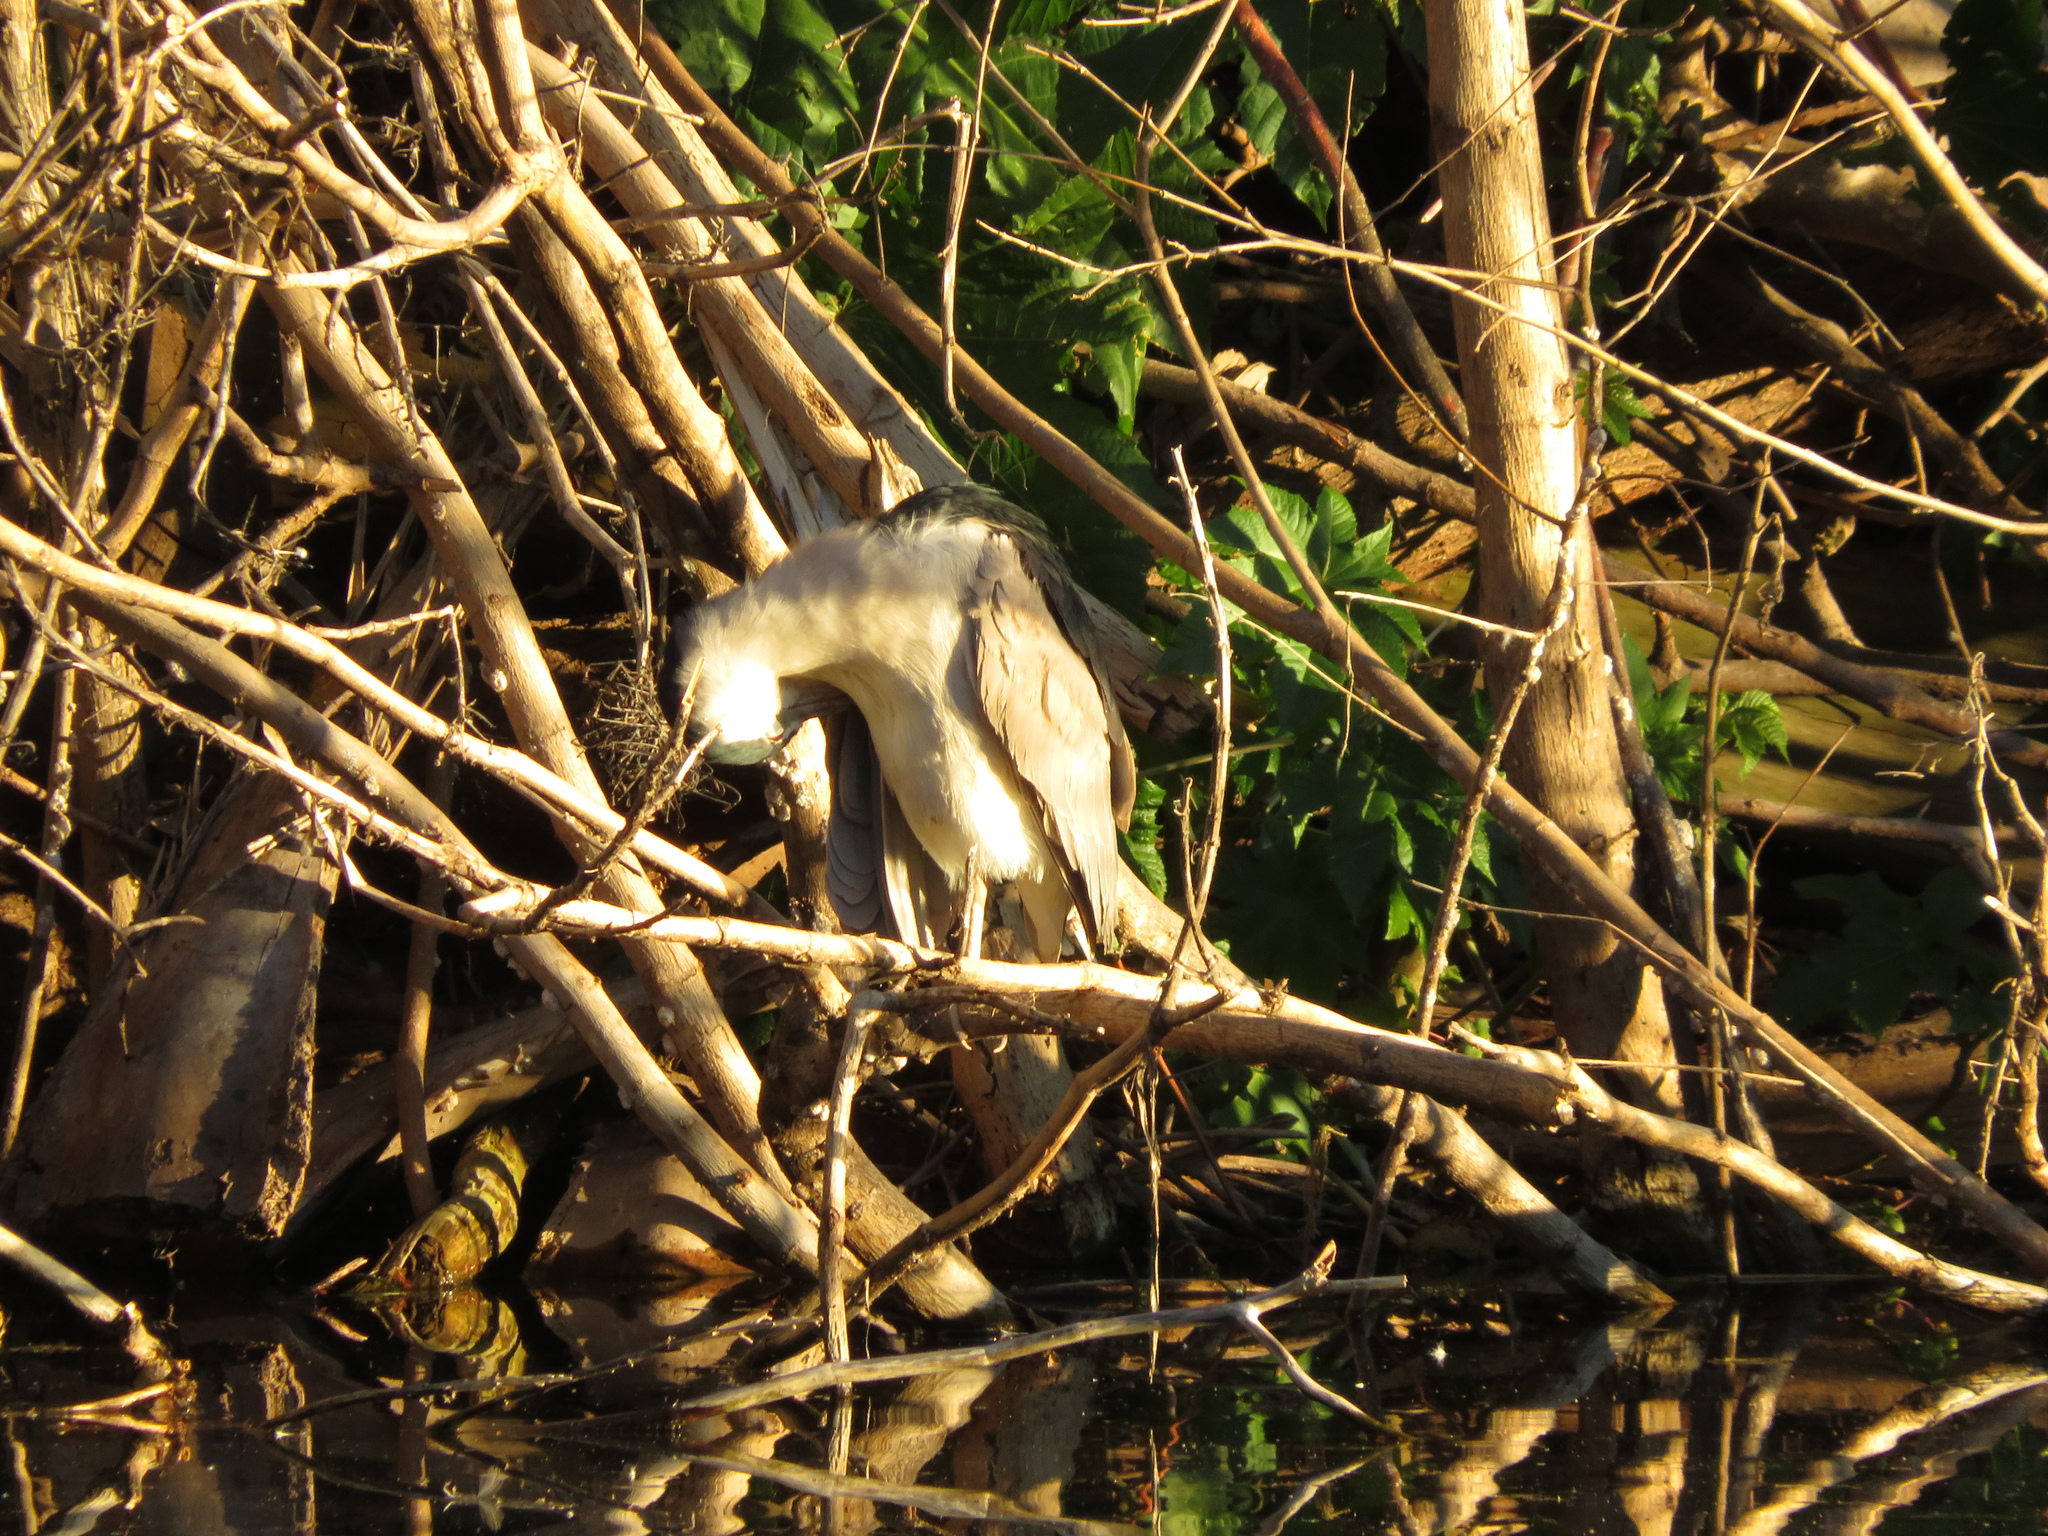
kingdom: Animalia
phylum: Chordata
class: Aves
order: Pelecaniformes
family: Ardeidae
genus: Nycticorax
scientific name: Nycticorax nycticorax
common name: Black-crowned night heron
